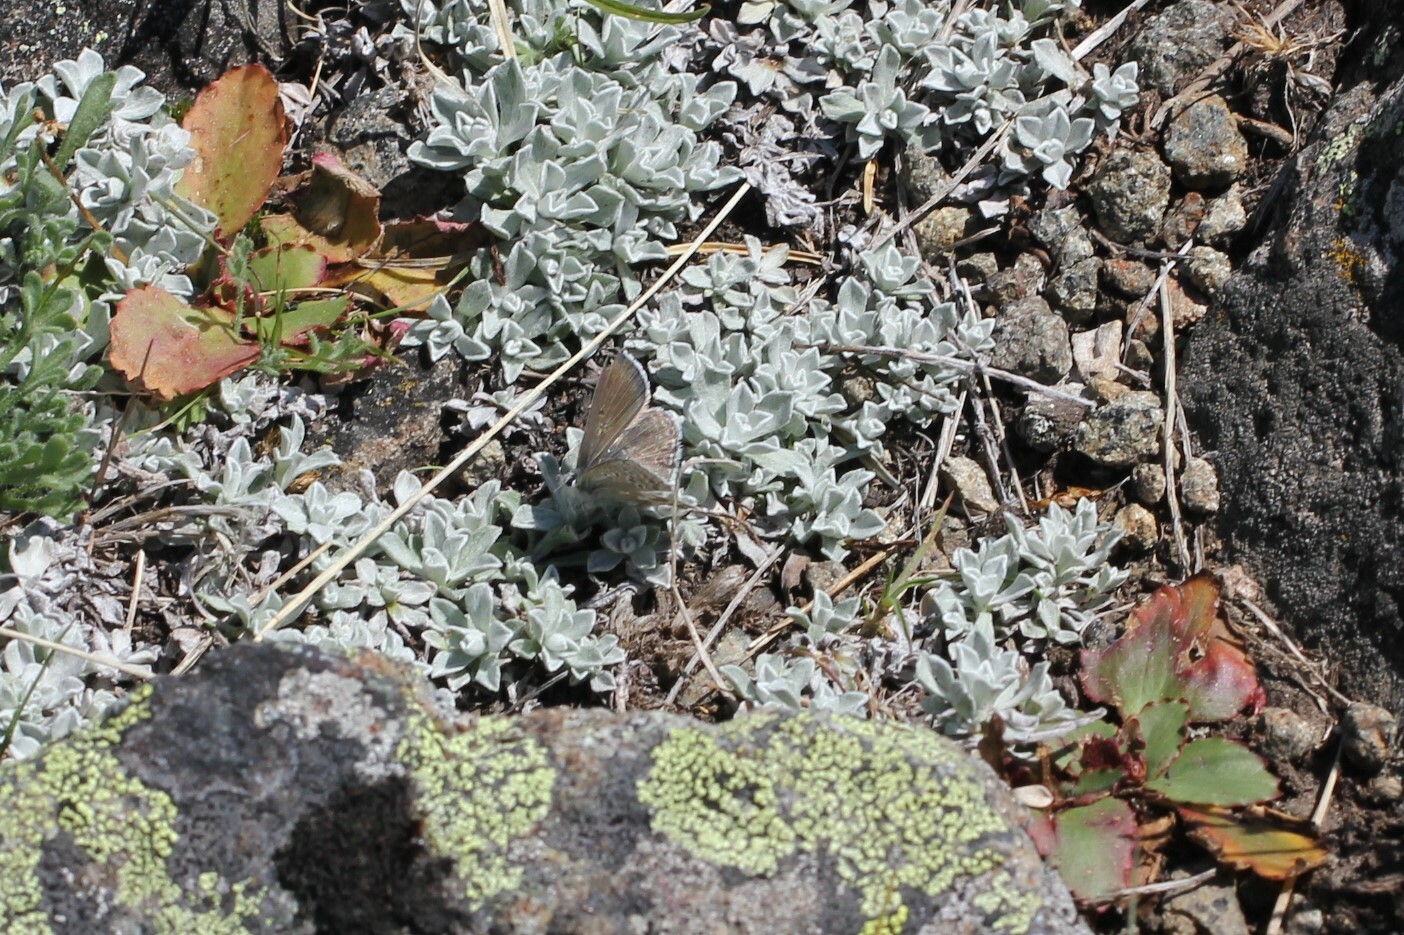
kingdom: Animalia
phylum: Arthropoda
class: Insecta
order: Lepidoptera
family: Lycaenidae
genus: Agriades
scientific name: Agriades glandon
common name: Glandon blue
